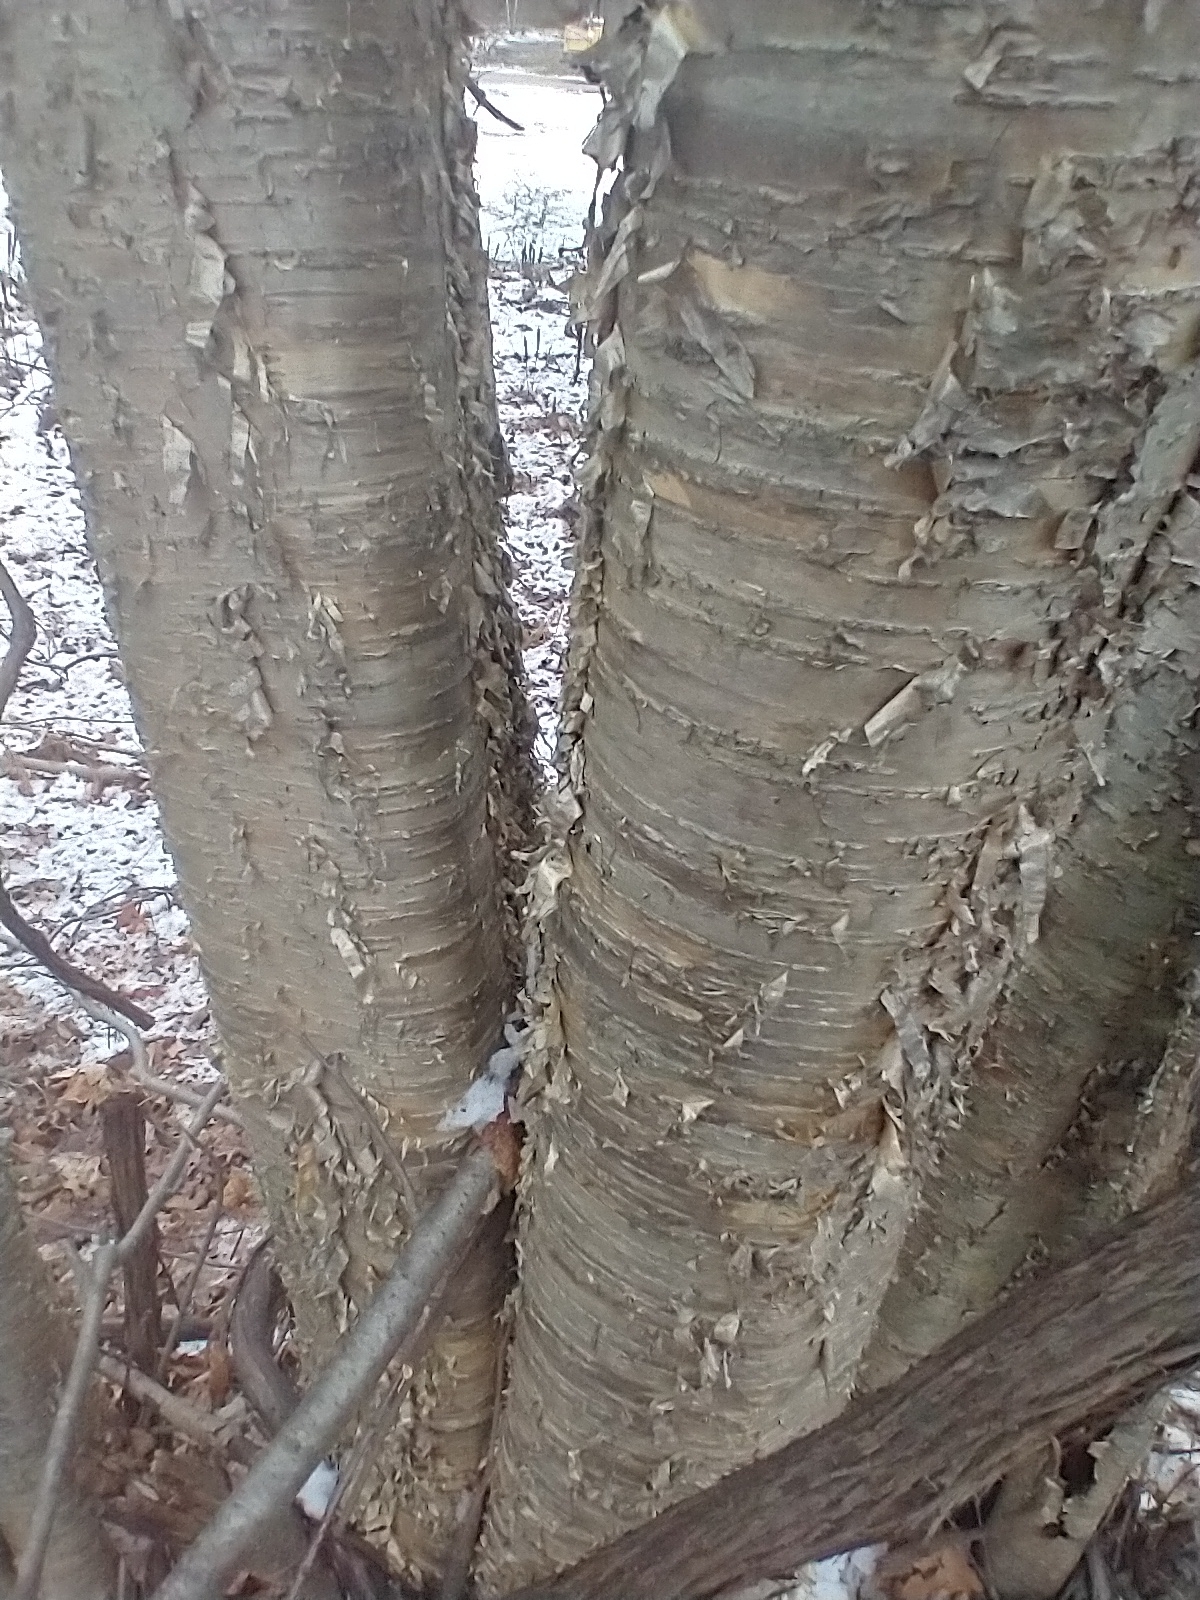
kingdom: Plantae
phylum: Tracheophyta
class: Magnoliopsida
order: Fagales
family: Betulaceae
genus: Betula
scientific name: Betula alleghaniensis
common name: Yellow birch
